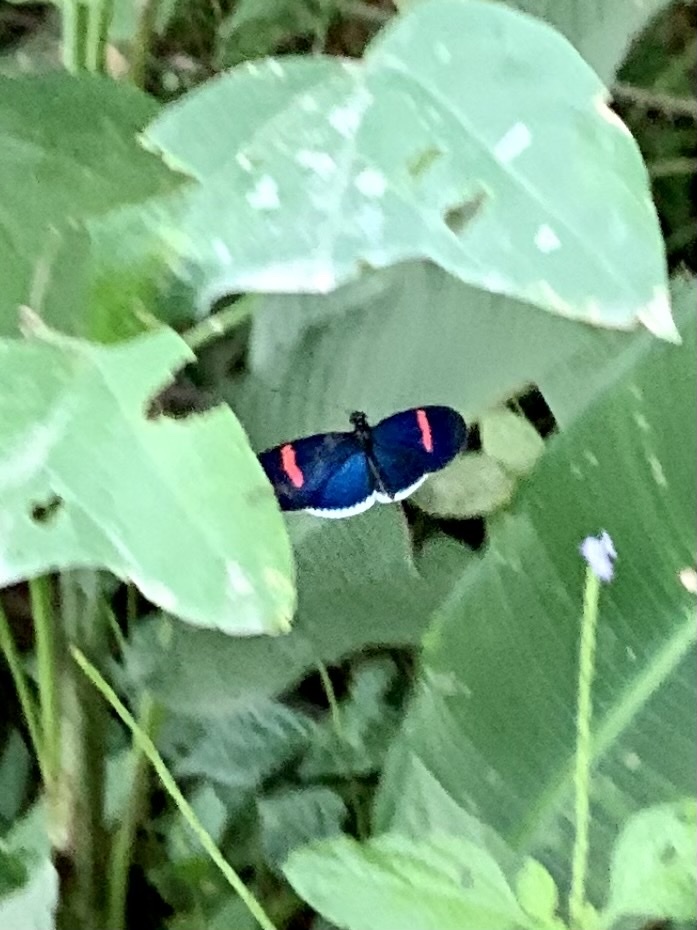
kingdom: Animalia
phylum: Arthropoda
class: Insecta
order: Lepidoptera
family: Nymphalidae
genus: Heliconius
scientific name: Heliconius erato
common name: Common patch longwing
